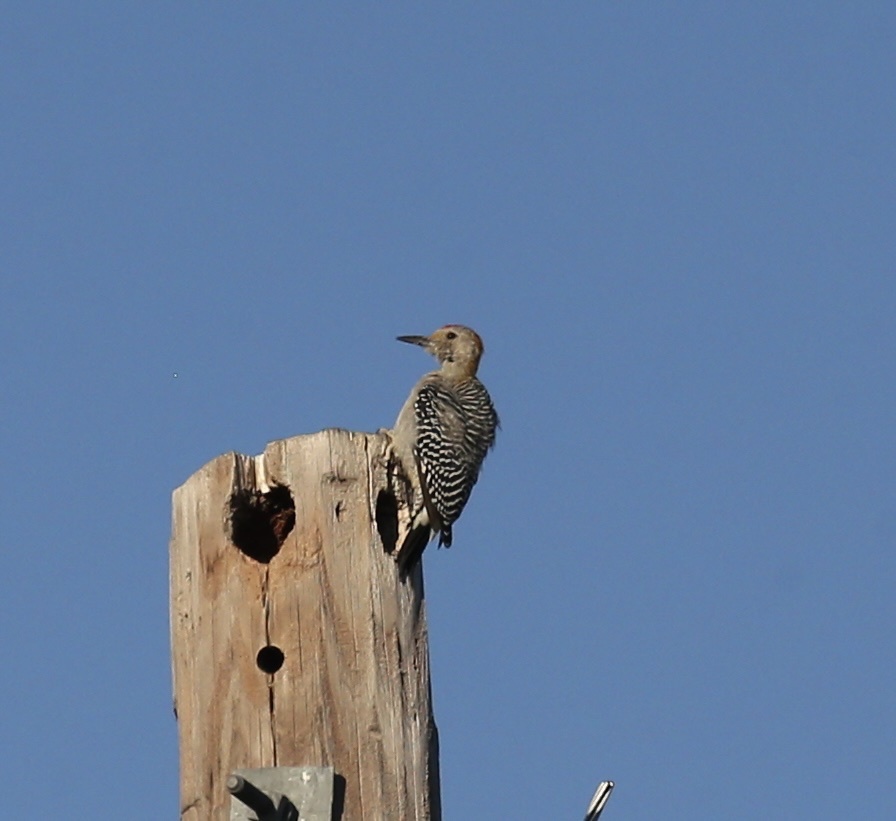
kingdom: Animalia
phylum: Chordata
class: Aves
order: Piciformes
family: Picidae
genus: Melanerpes
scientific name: Melanerpes aurifrons
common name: Golden-fronted woodpecker
